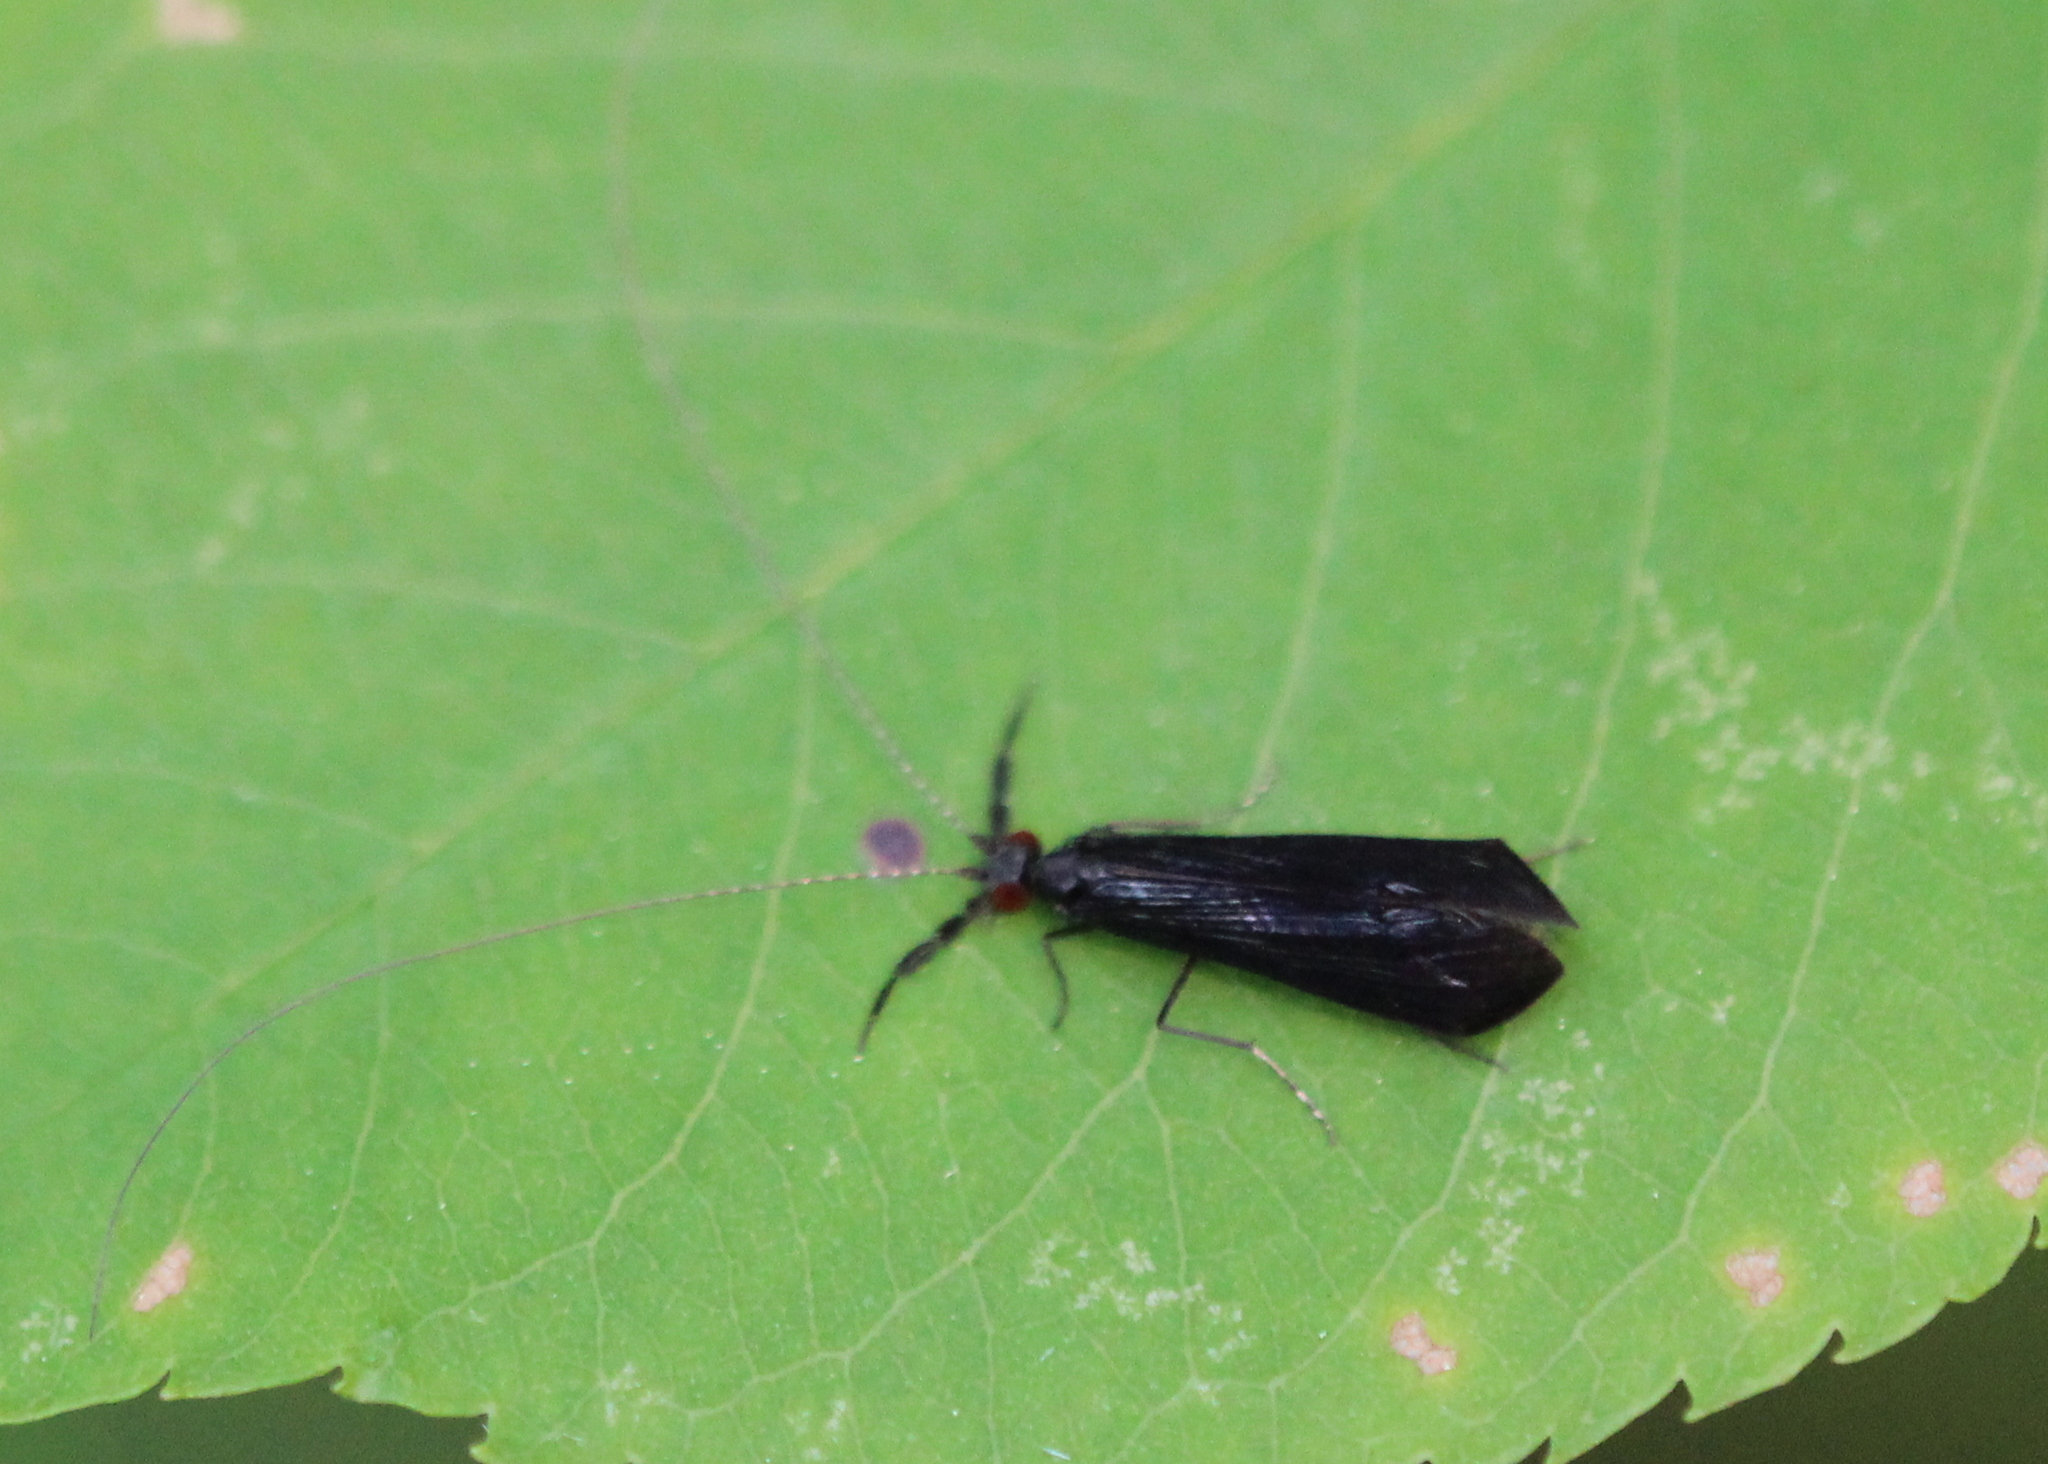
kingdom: Animalia
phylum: Arthropoda
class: Insecta
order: Trichoptera
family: Leptoceridae
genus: Mystacides
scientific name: Mystacides sepulchralis
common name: Black dancer caddisfly
